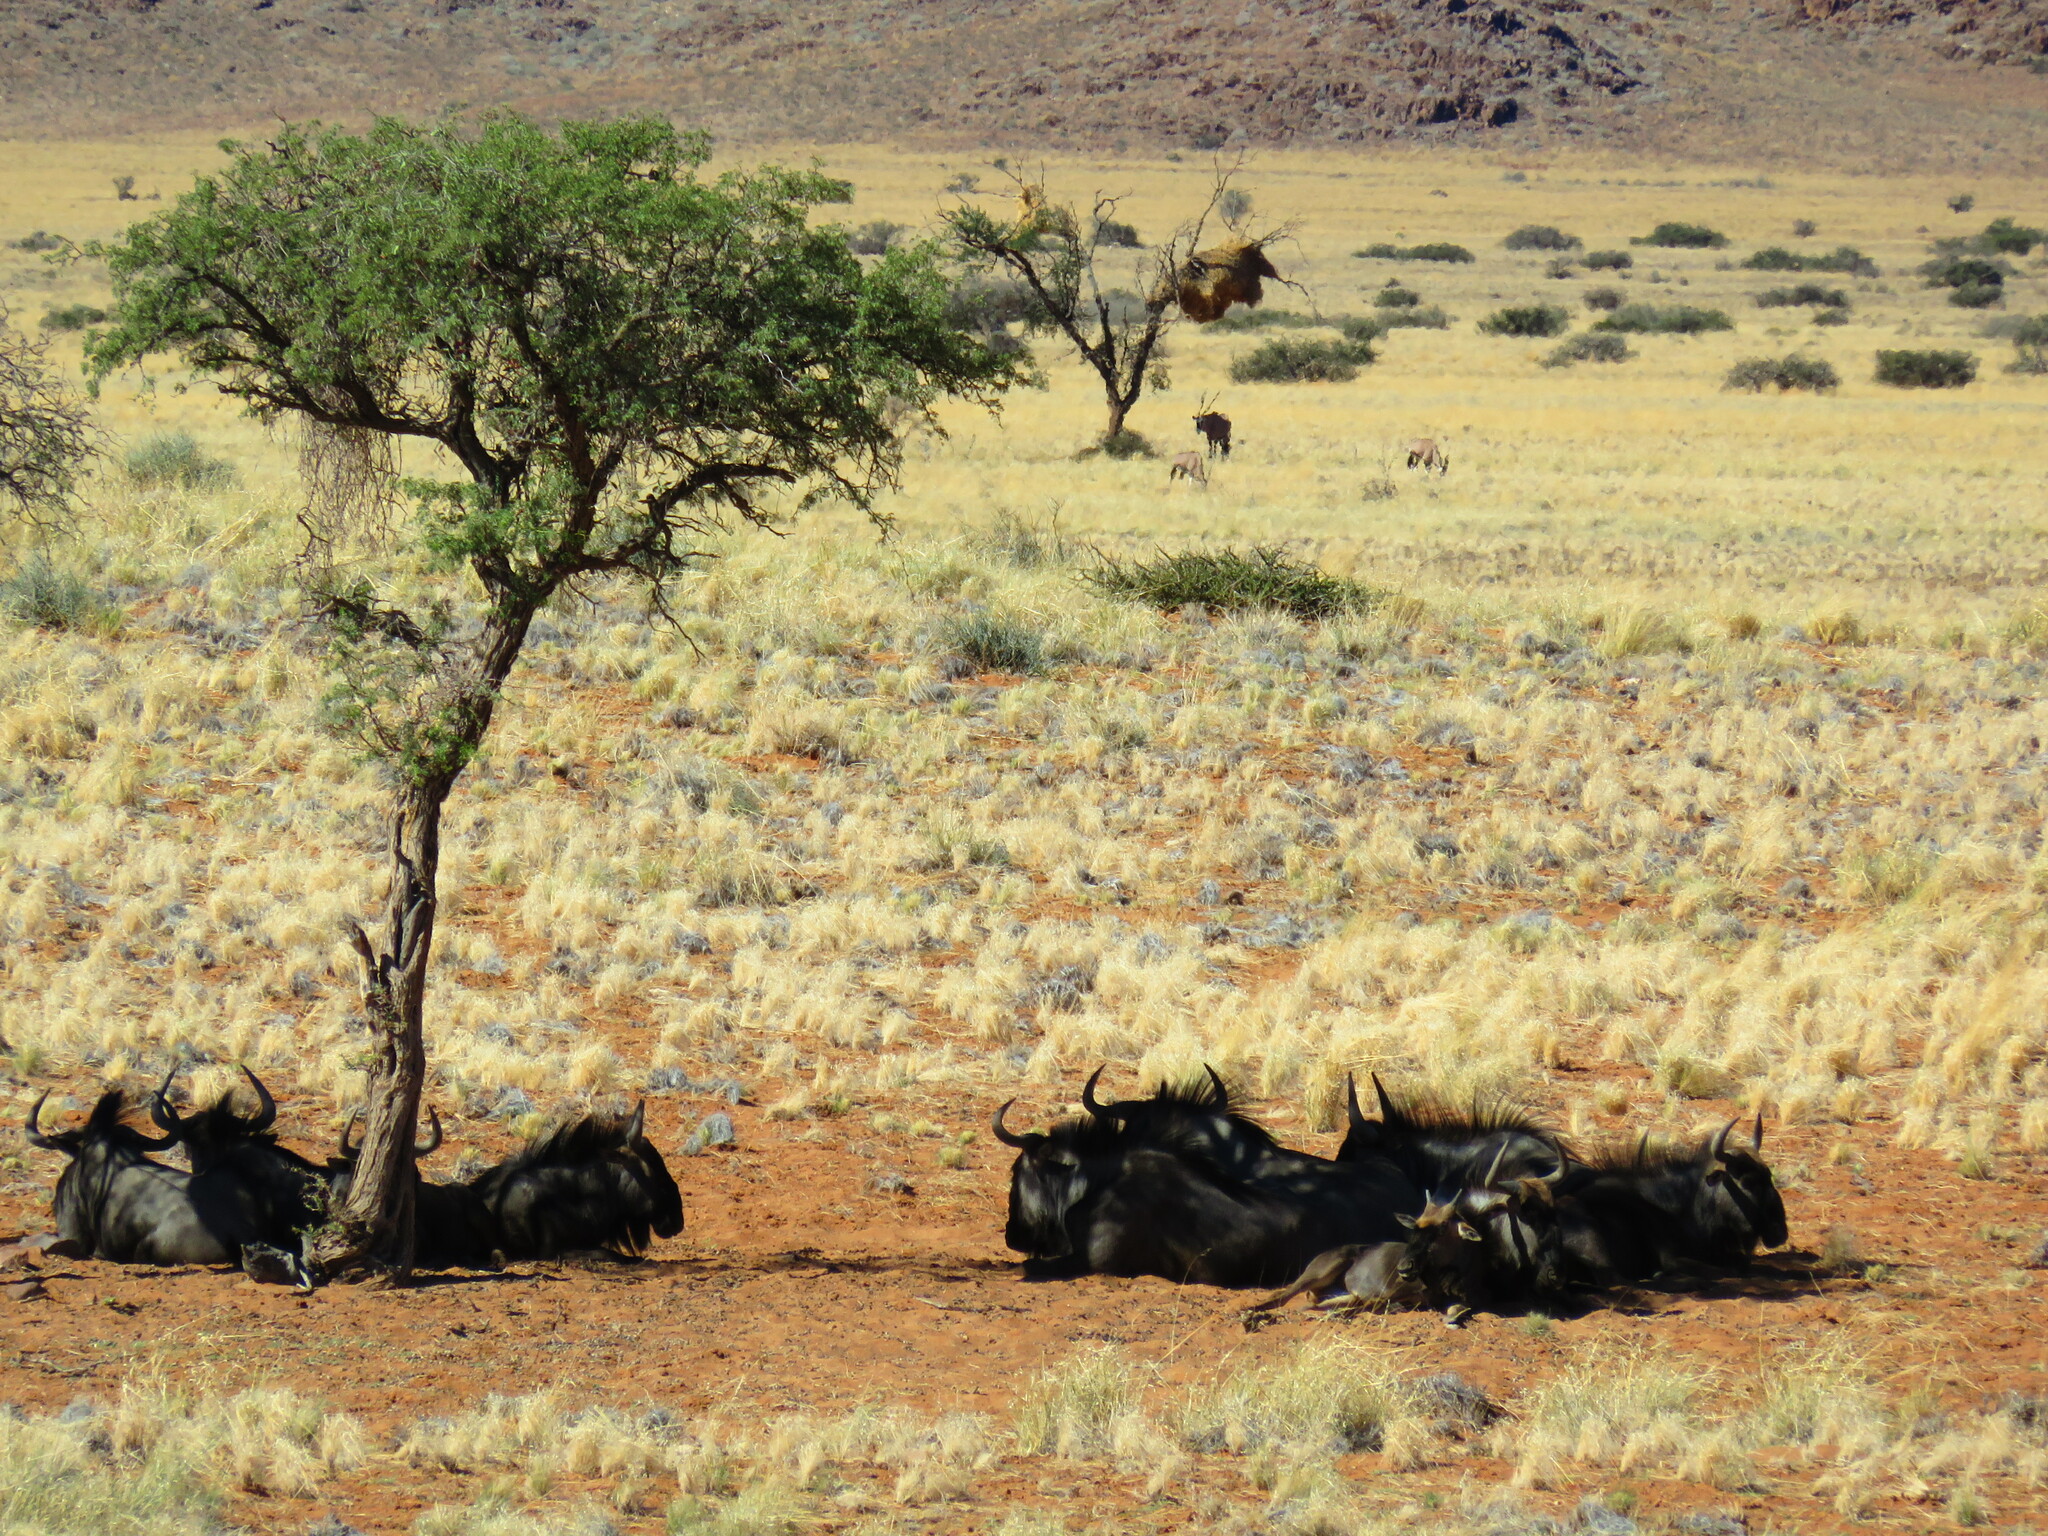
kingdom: Animalia
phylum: Chordata
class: Mammalia
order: Artiodactyla
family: Bovidae
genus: Connochaetes
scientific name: Connochaetes taurinus
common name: Blue wildebeest
